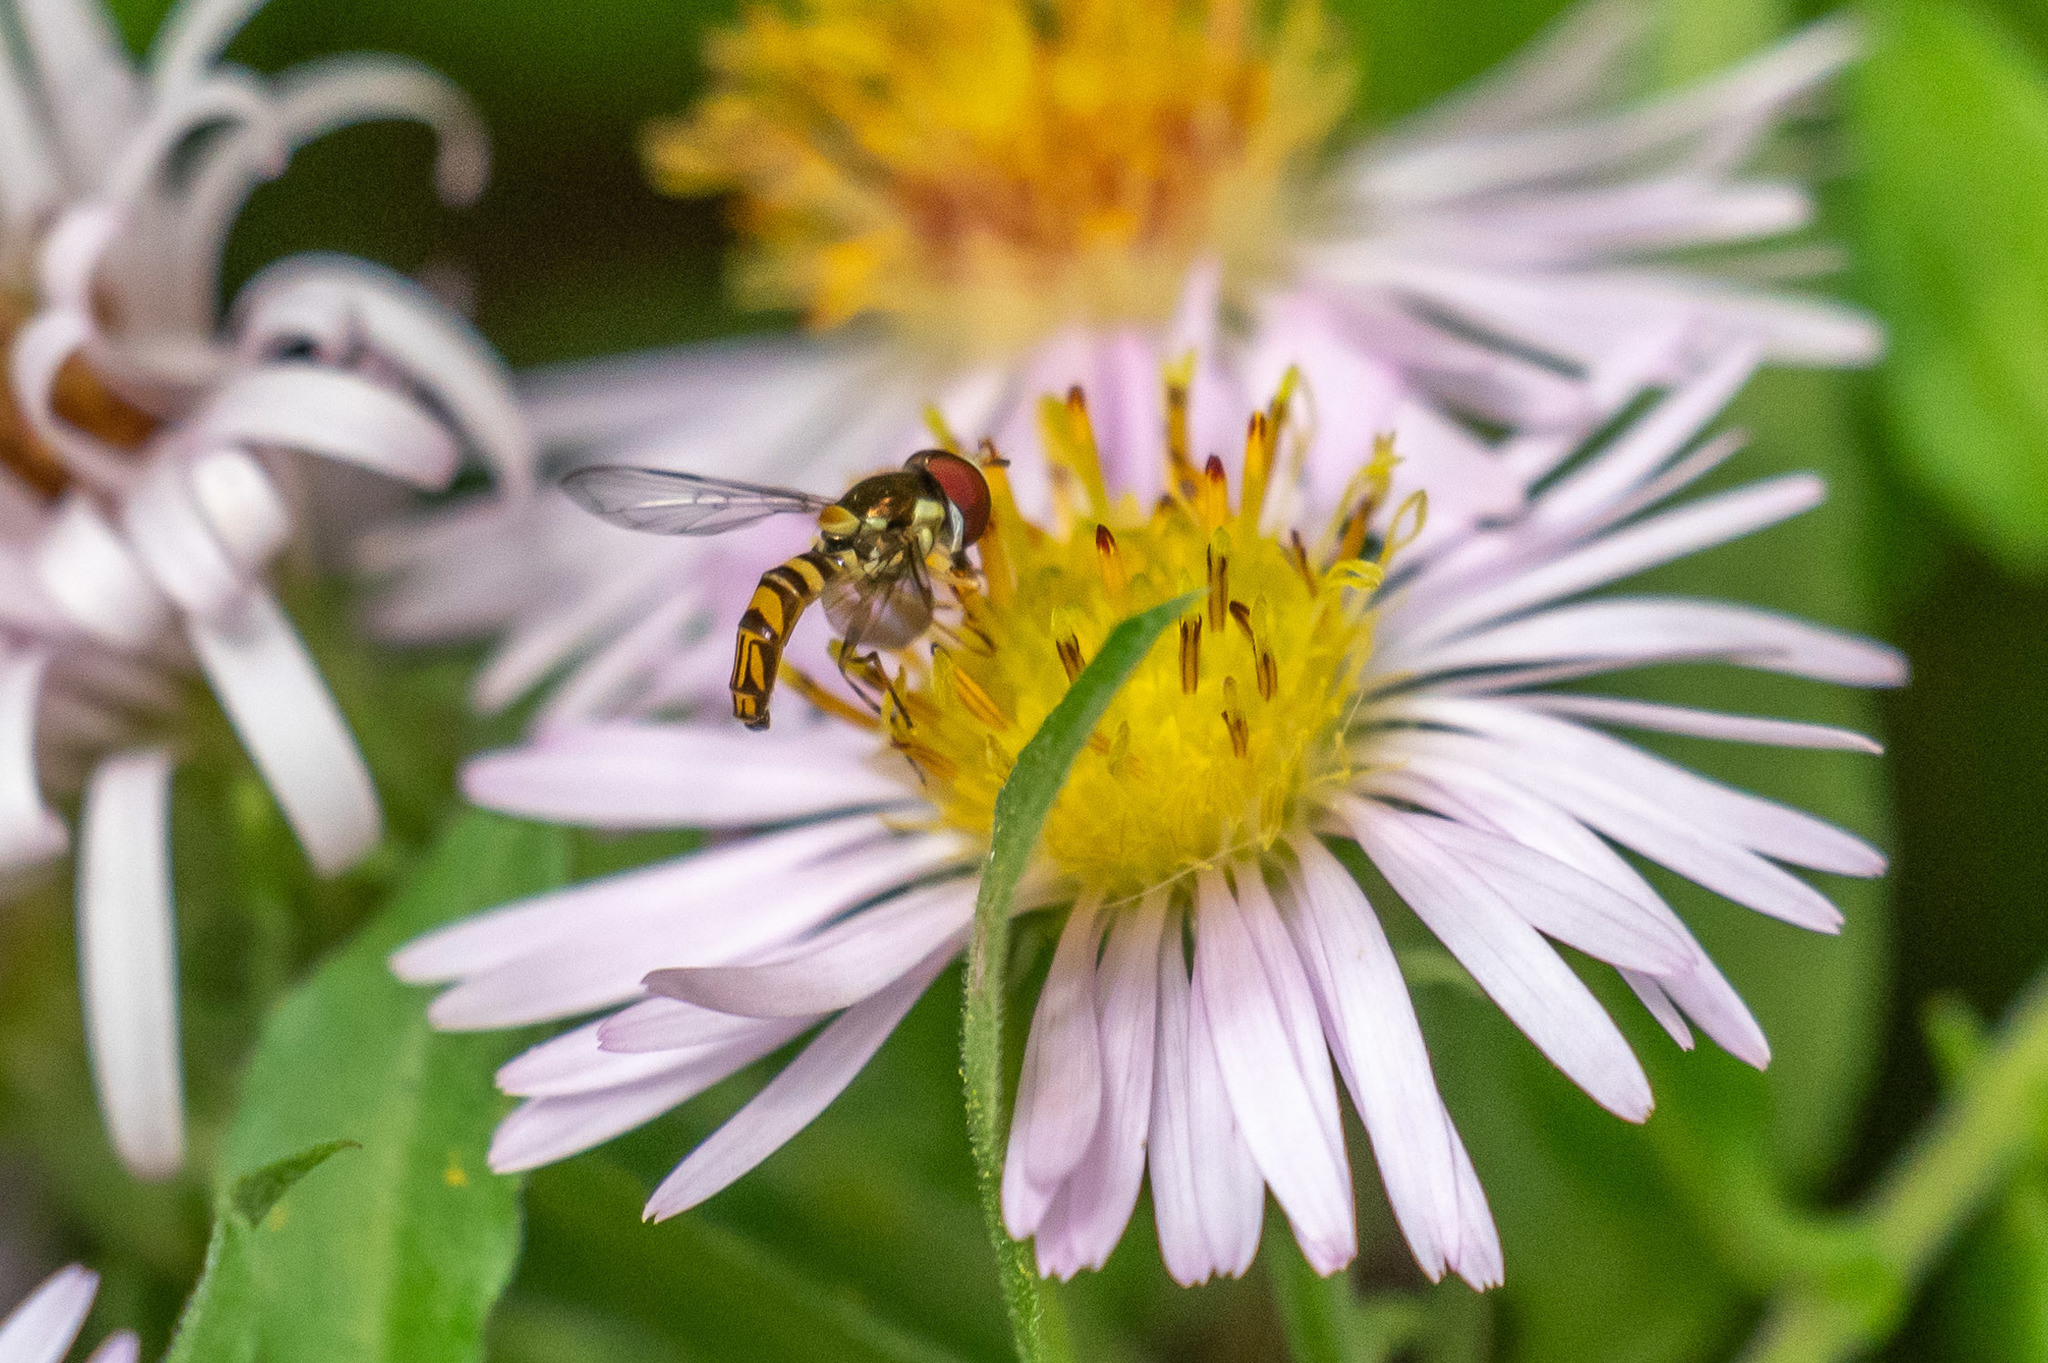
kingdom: Animalia
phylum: Arthropoda
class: Insecta
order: Diptera
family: Syrphidae
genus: Allograpta
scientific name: Allograpta obliqua
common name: Common oblique syrphid
